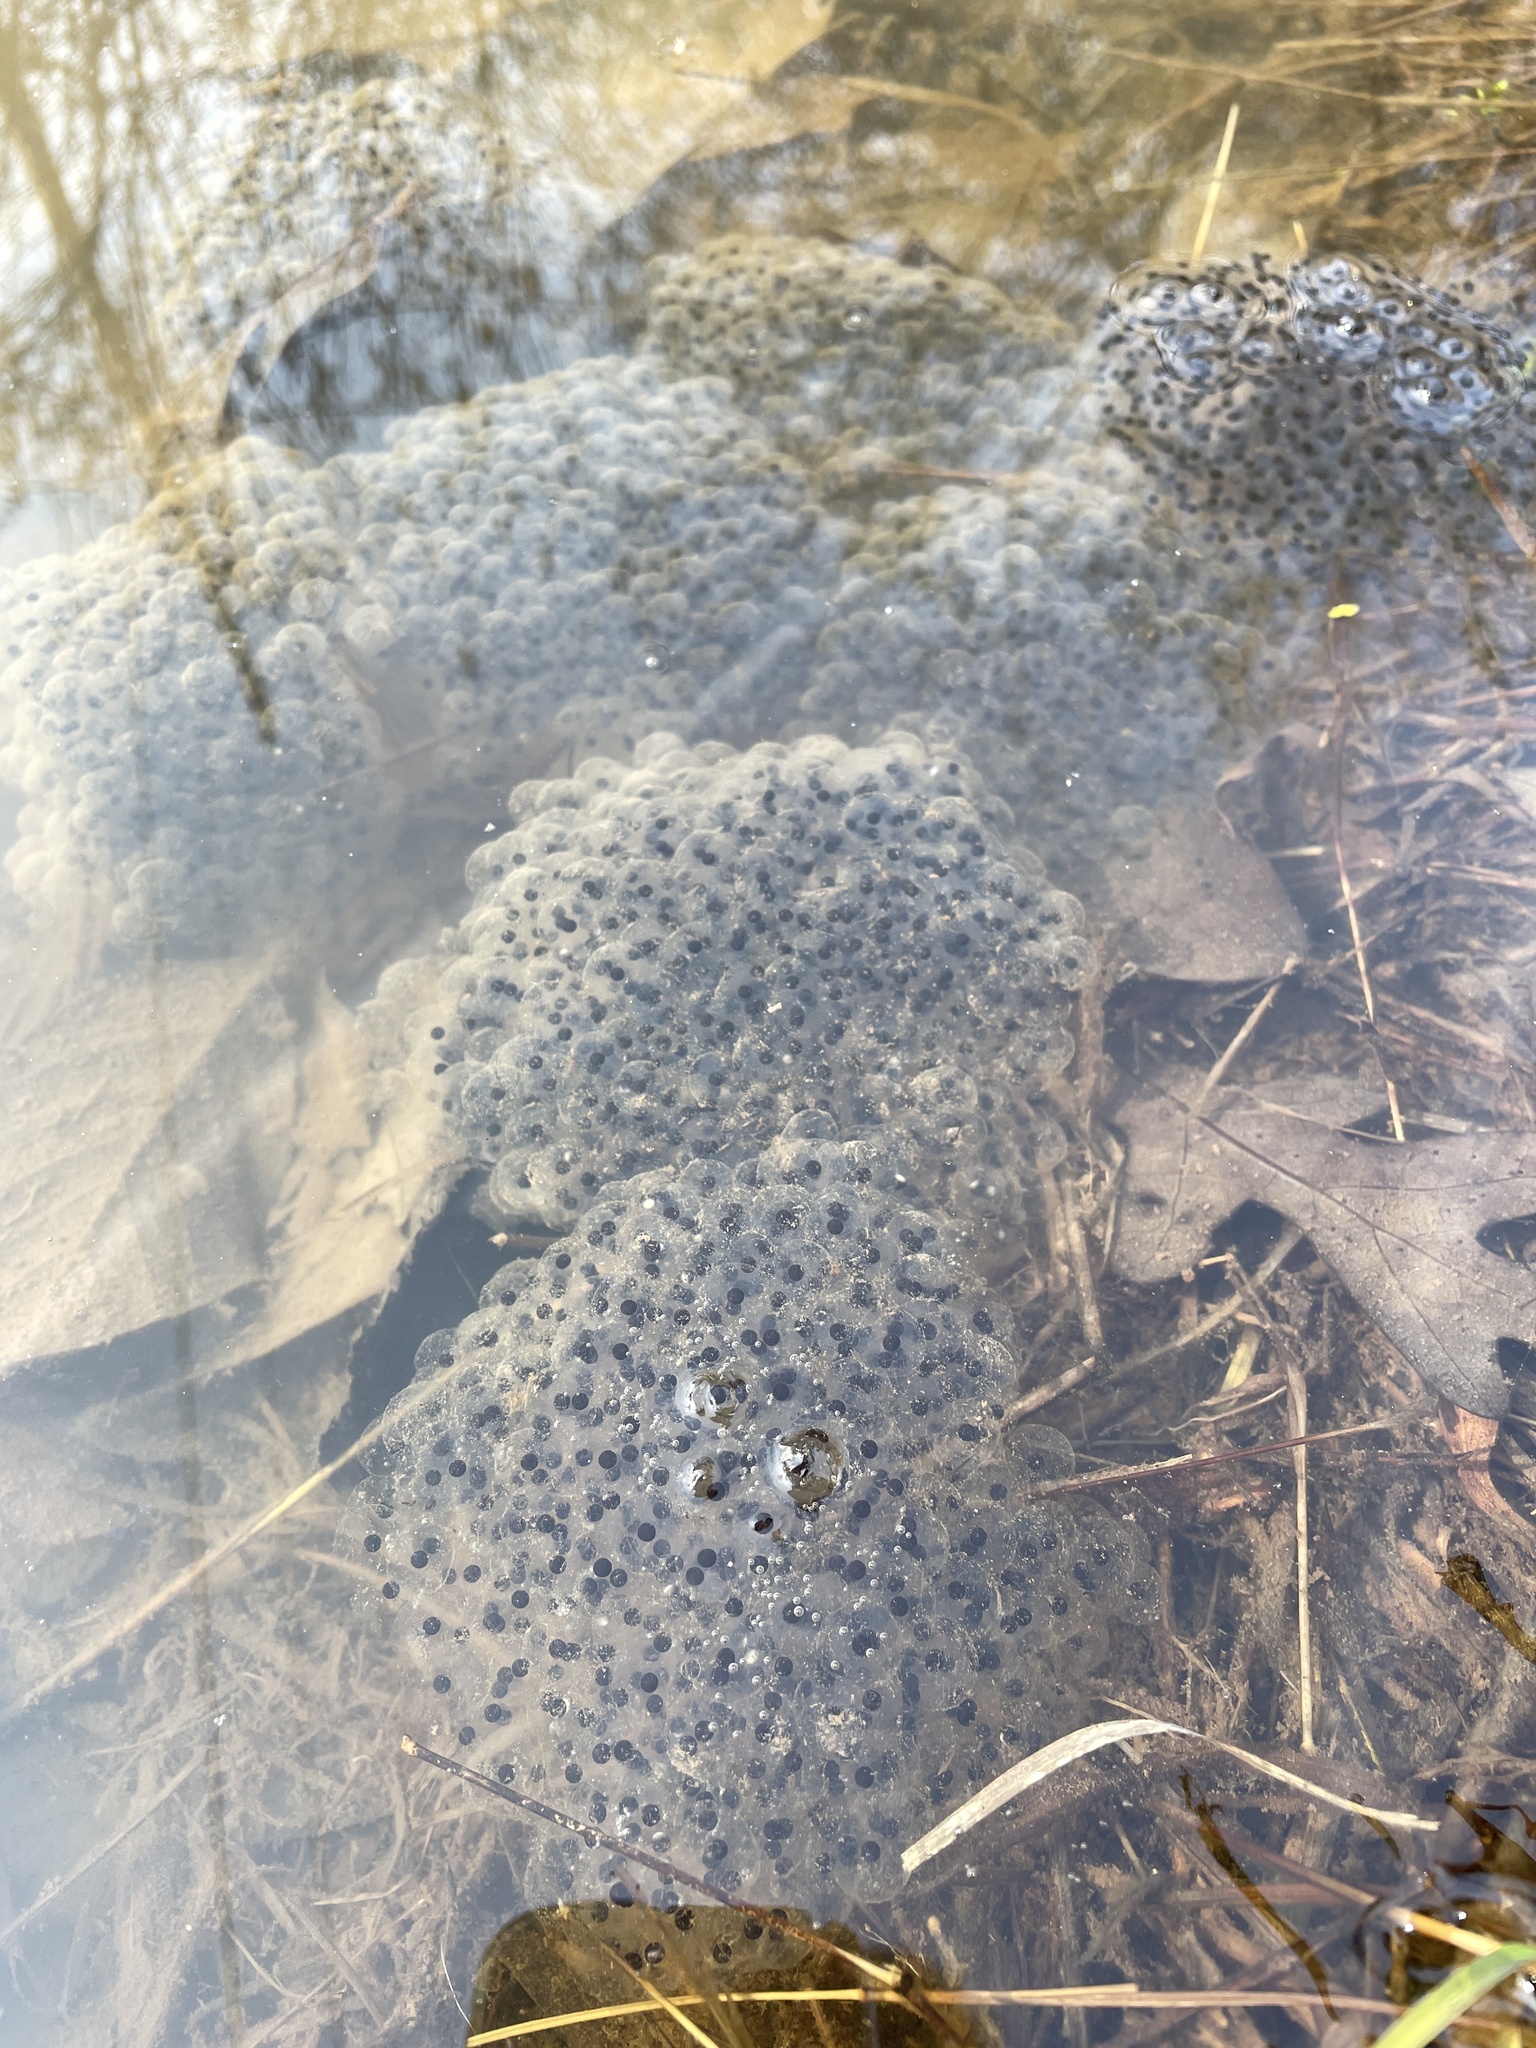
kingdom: Animalia
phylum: Chordata
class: Amphibia
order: Anura
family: Ranidae
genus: Lithobates
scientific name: Lithobates sylvaticus
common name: Wood frog
